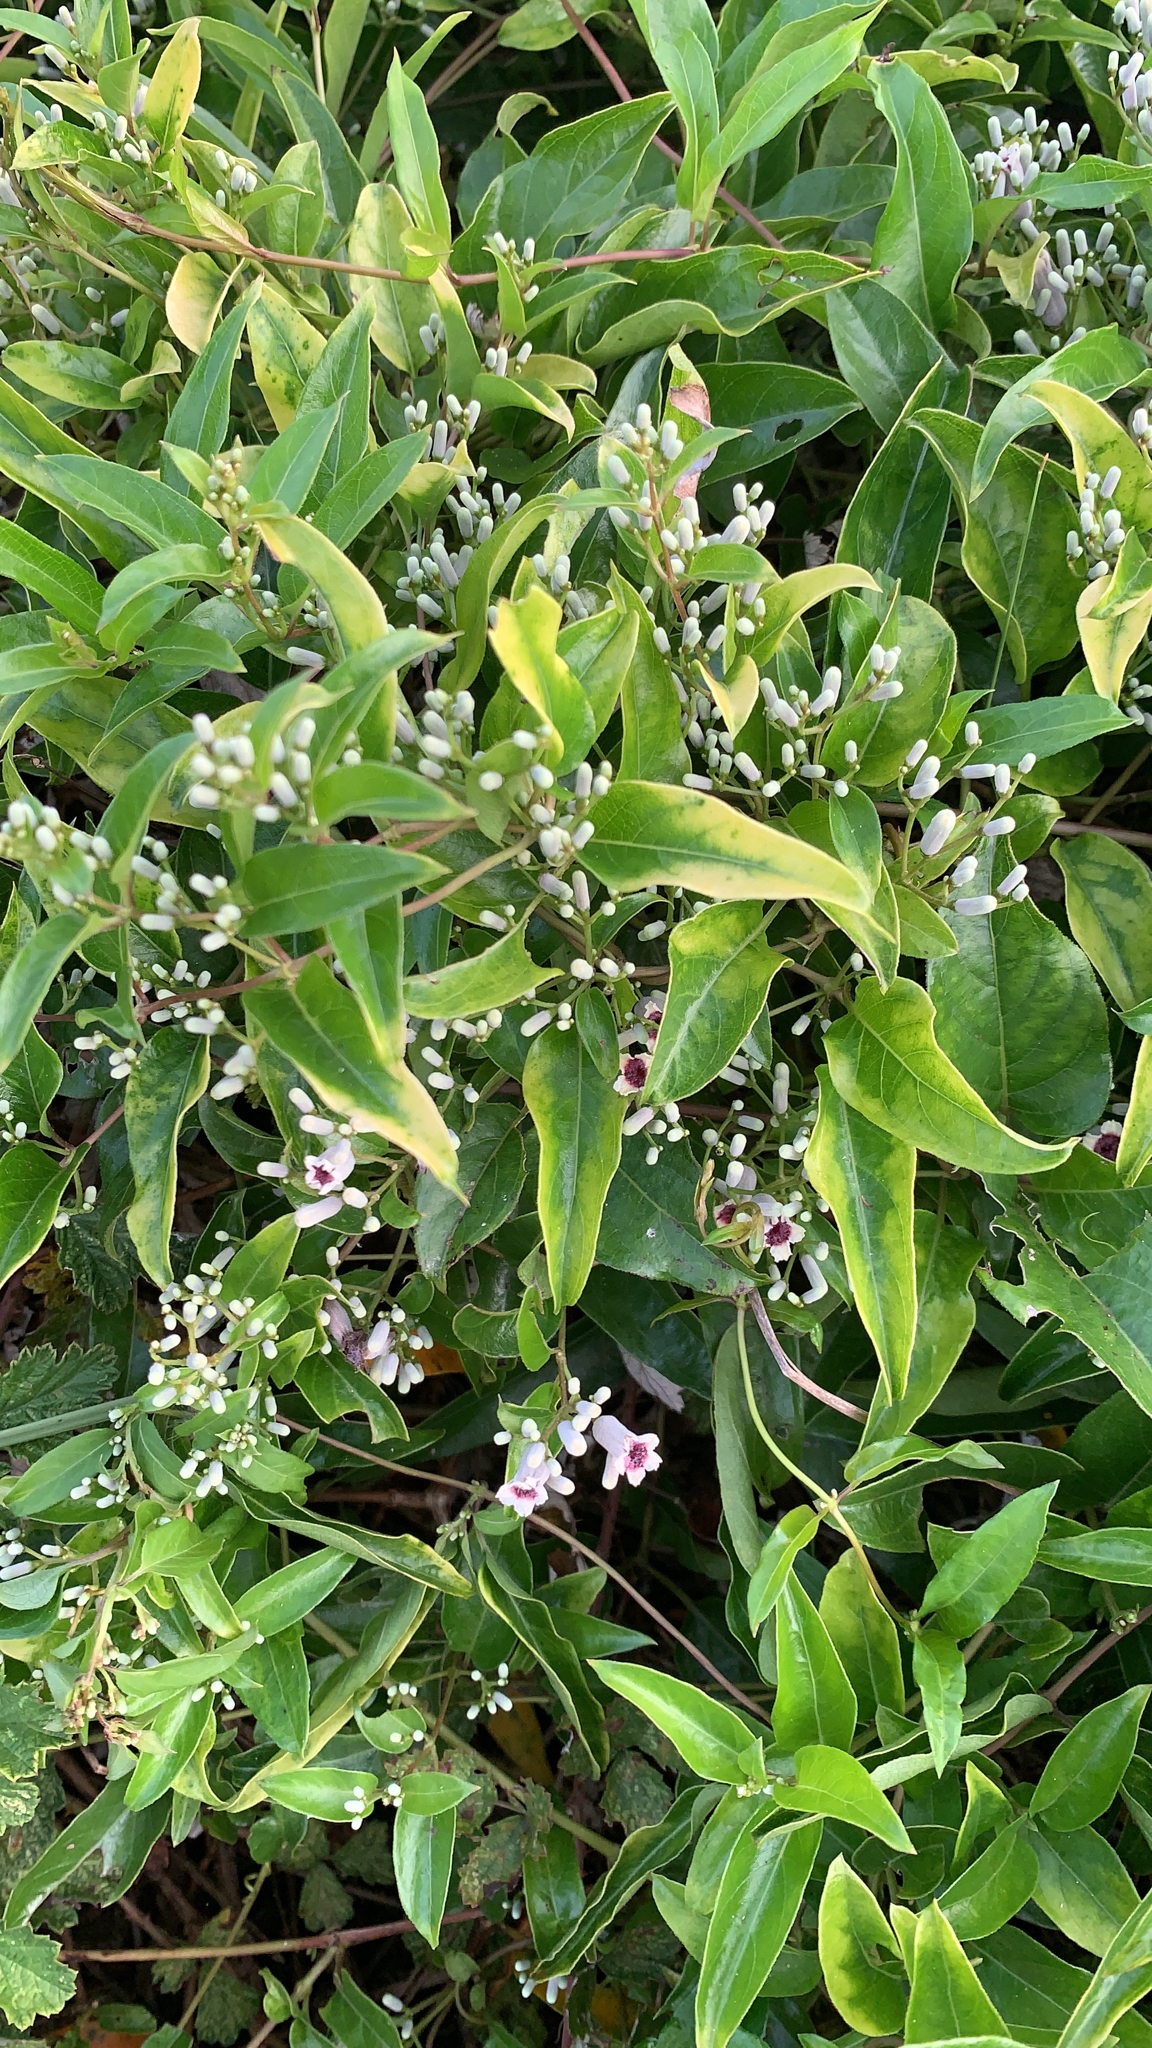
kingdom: Plantae
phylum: Tracheophyta
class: Magnoliopsida
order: Gentianales
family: Rubiaceae
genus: Paederia
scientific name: Paederia foetida
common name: Stinkvine
